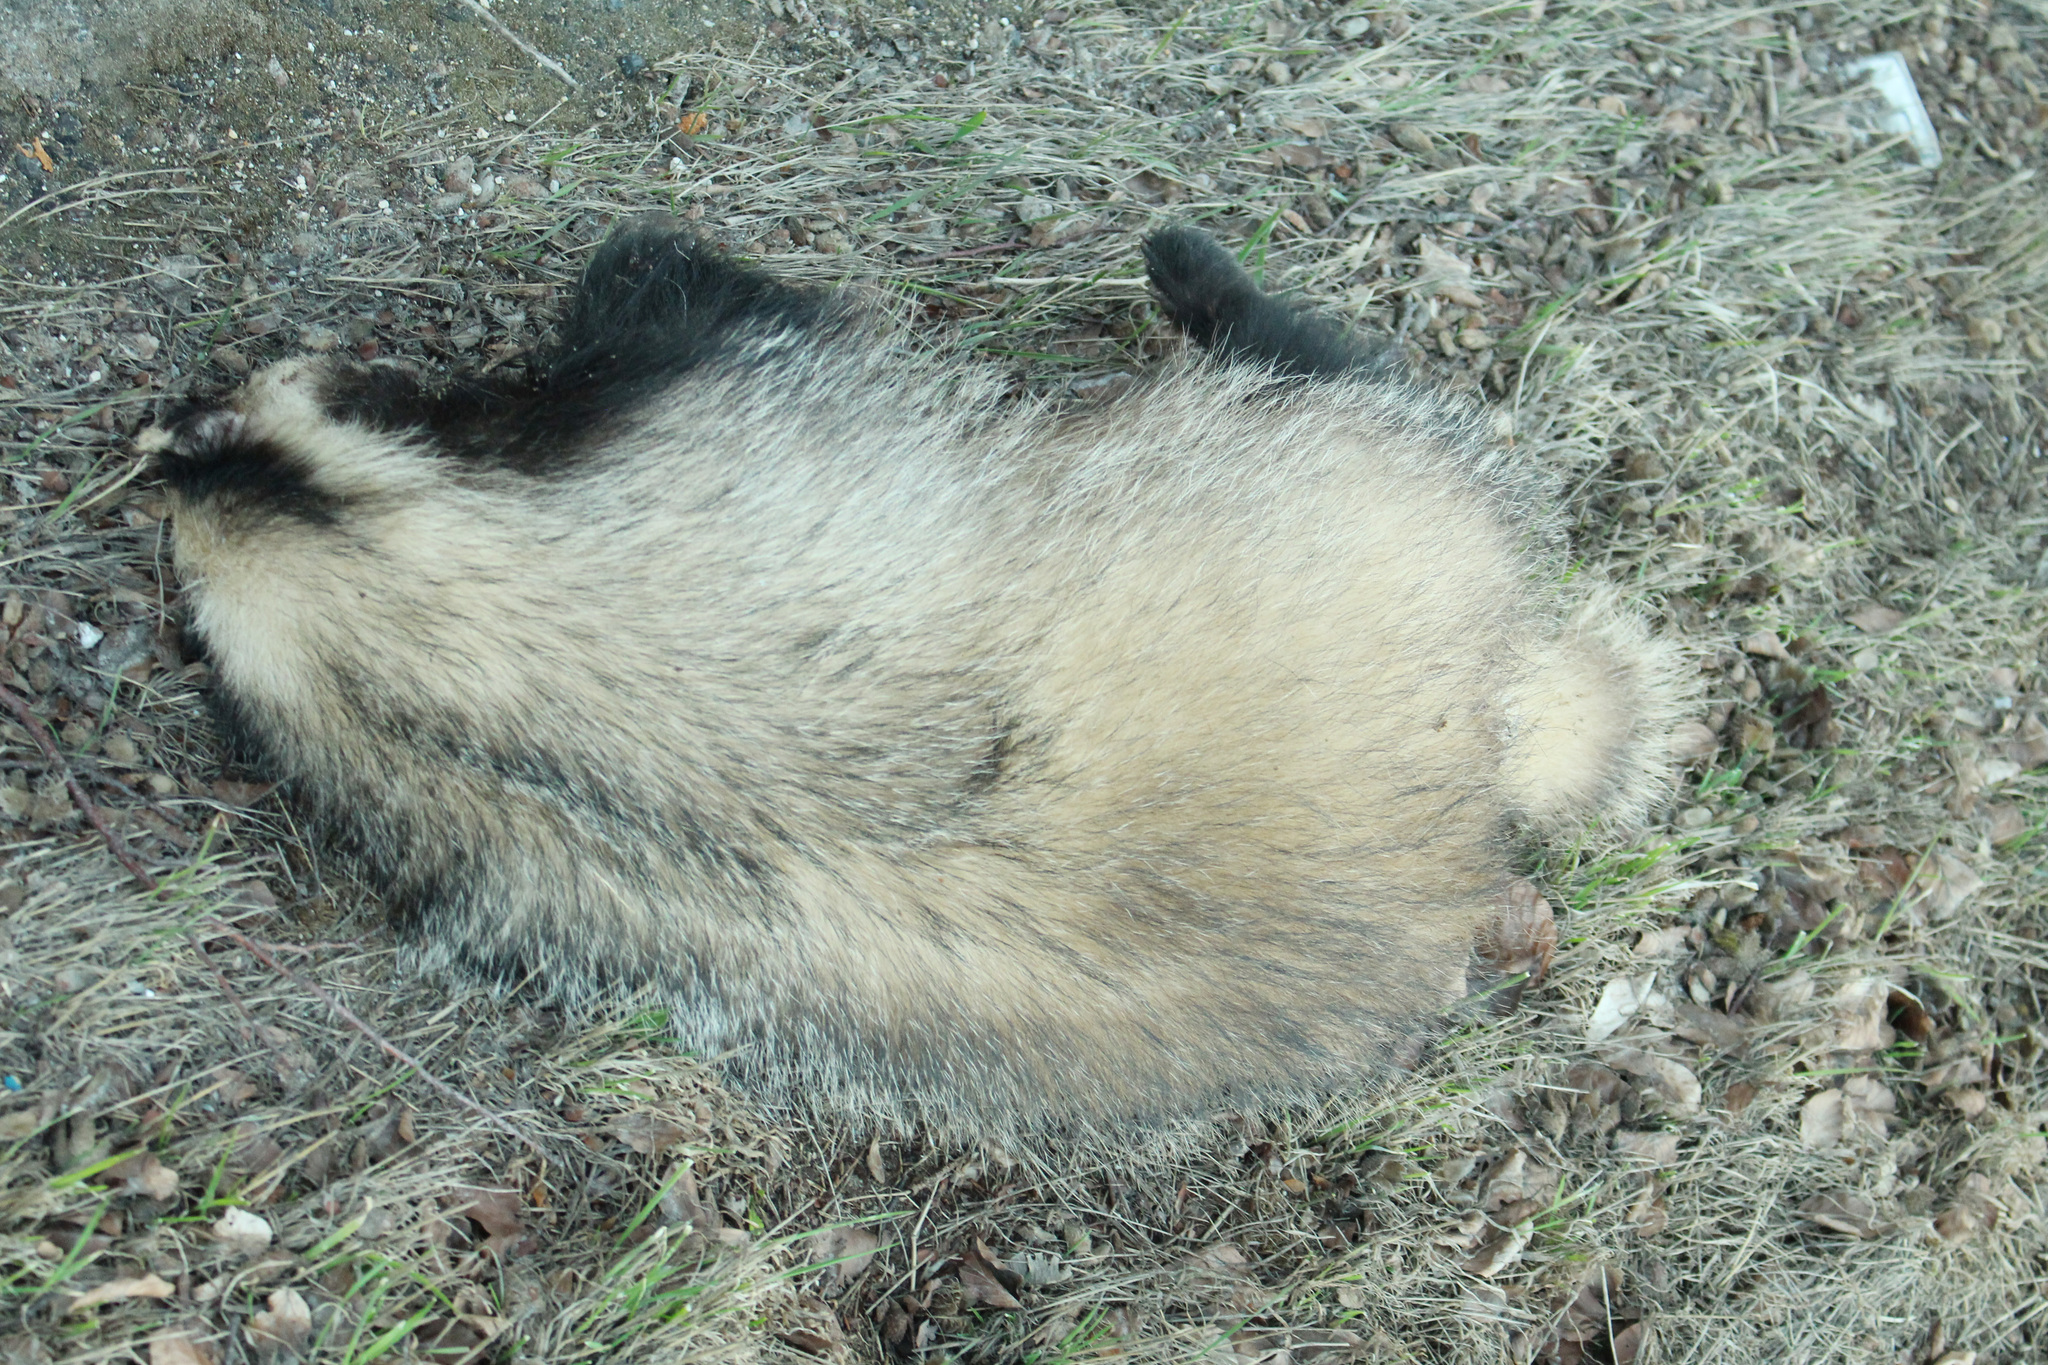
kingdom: Animalia
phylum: Chordata
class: Mammalia
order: Carnivora
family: Mustelidae
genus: Meles
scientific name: Meles meles
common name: Eurasian badger
